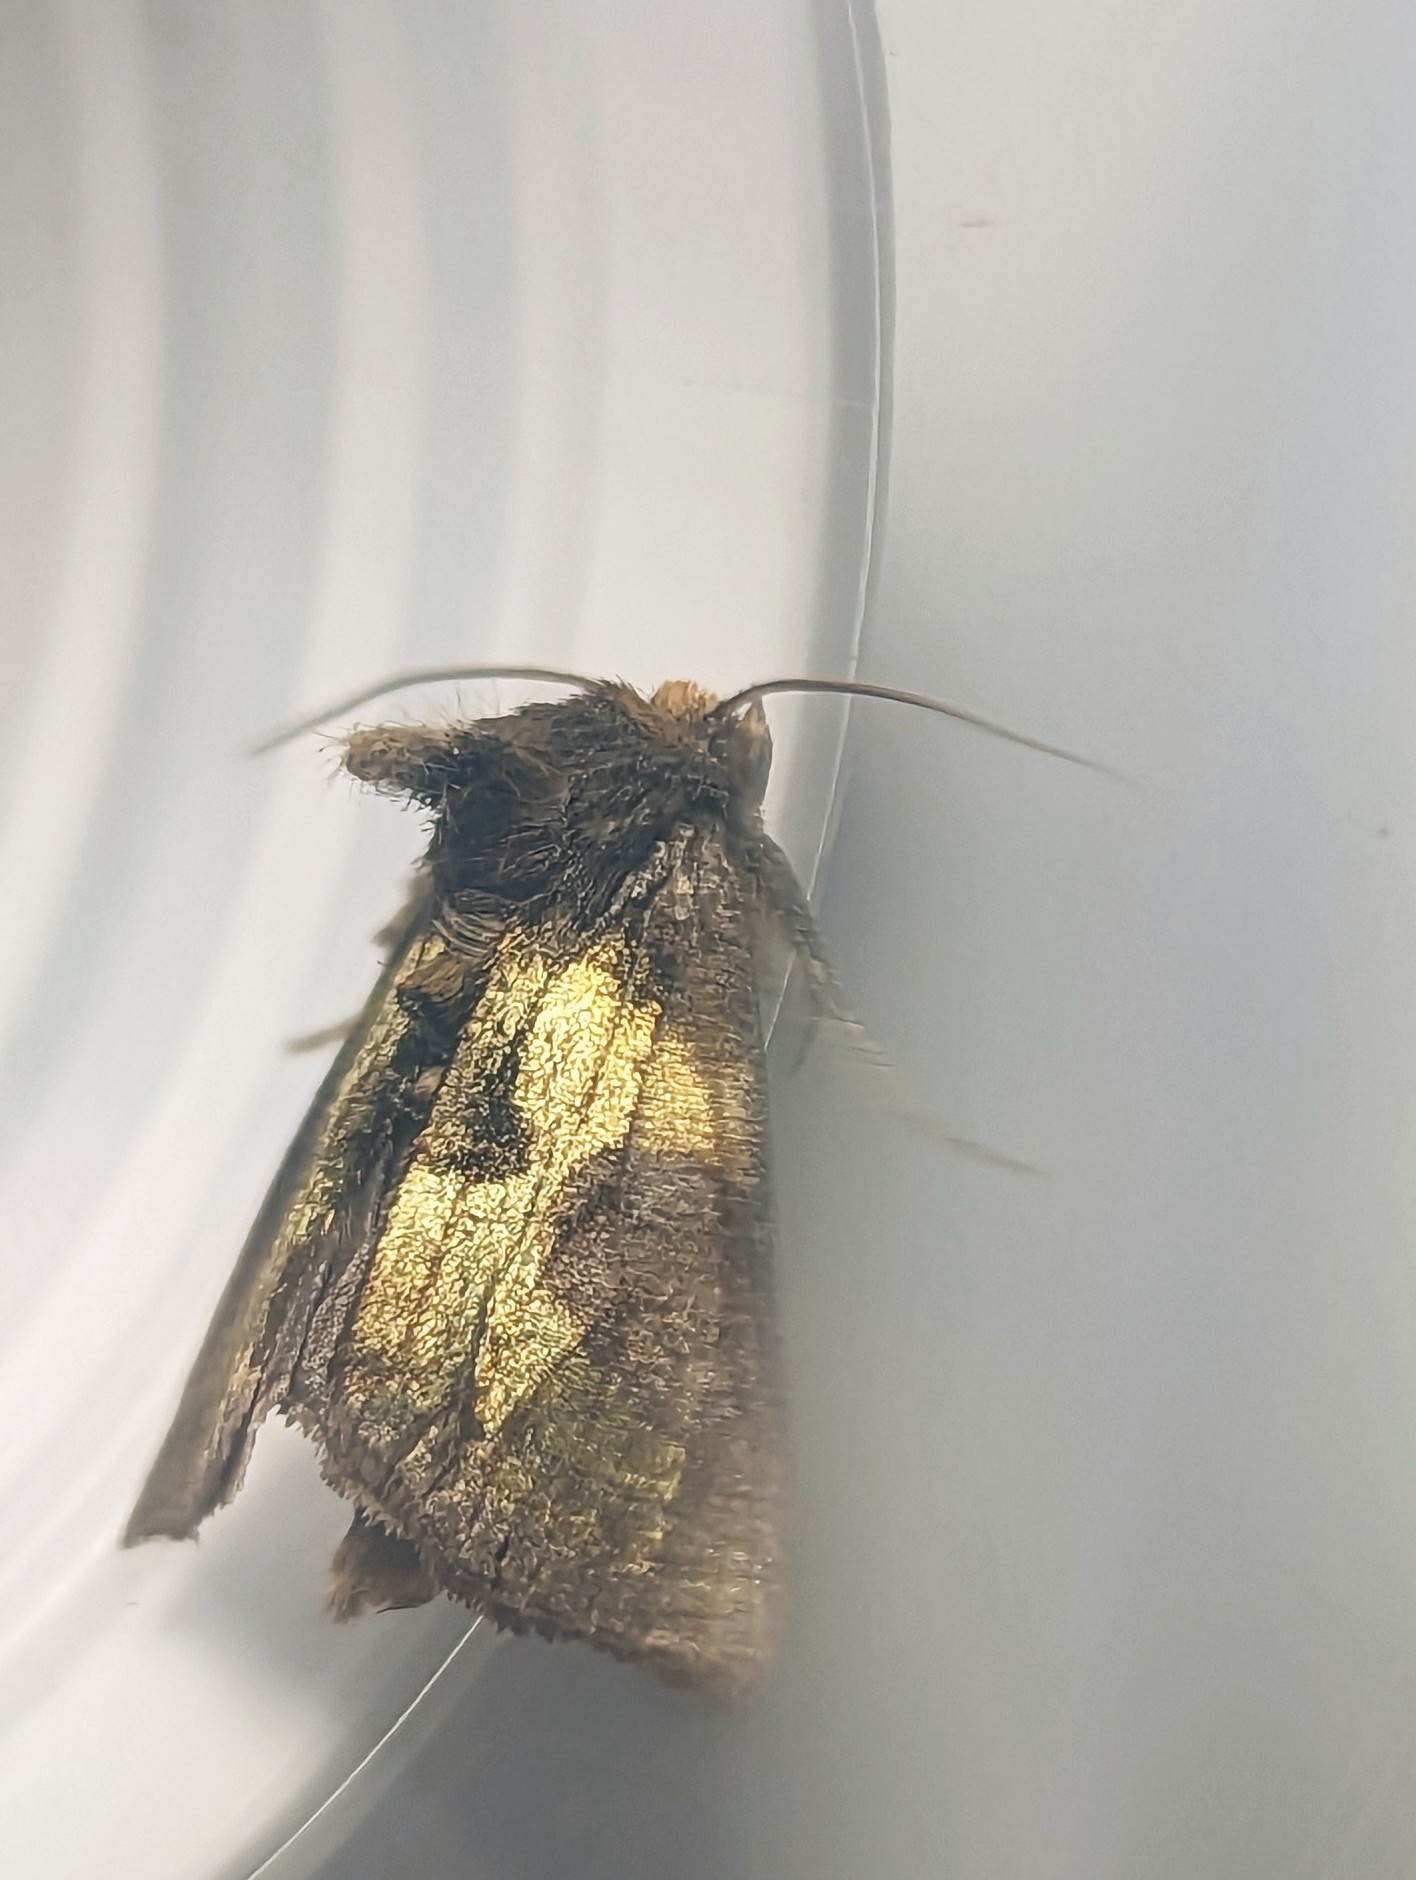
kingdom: Animalia
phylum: Arthropoda
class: Insecta
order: Lepidoptera
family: Noctuidae
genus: Diachrysia
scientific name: Diachrysia chrysitis
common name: Burnished brass
